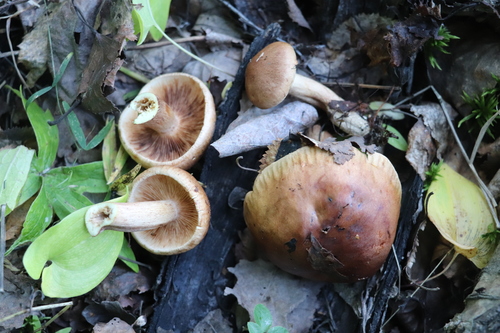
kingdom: Fungi
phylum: Basidiomycota
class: Agaricomycetes
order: Agaricales
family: Tricholomataceae
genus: Tricholoma
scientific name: Tricholoma fulvum
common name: Birch knight
